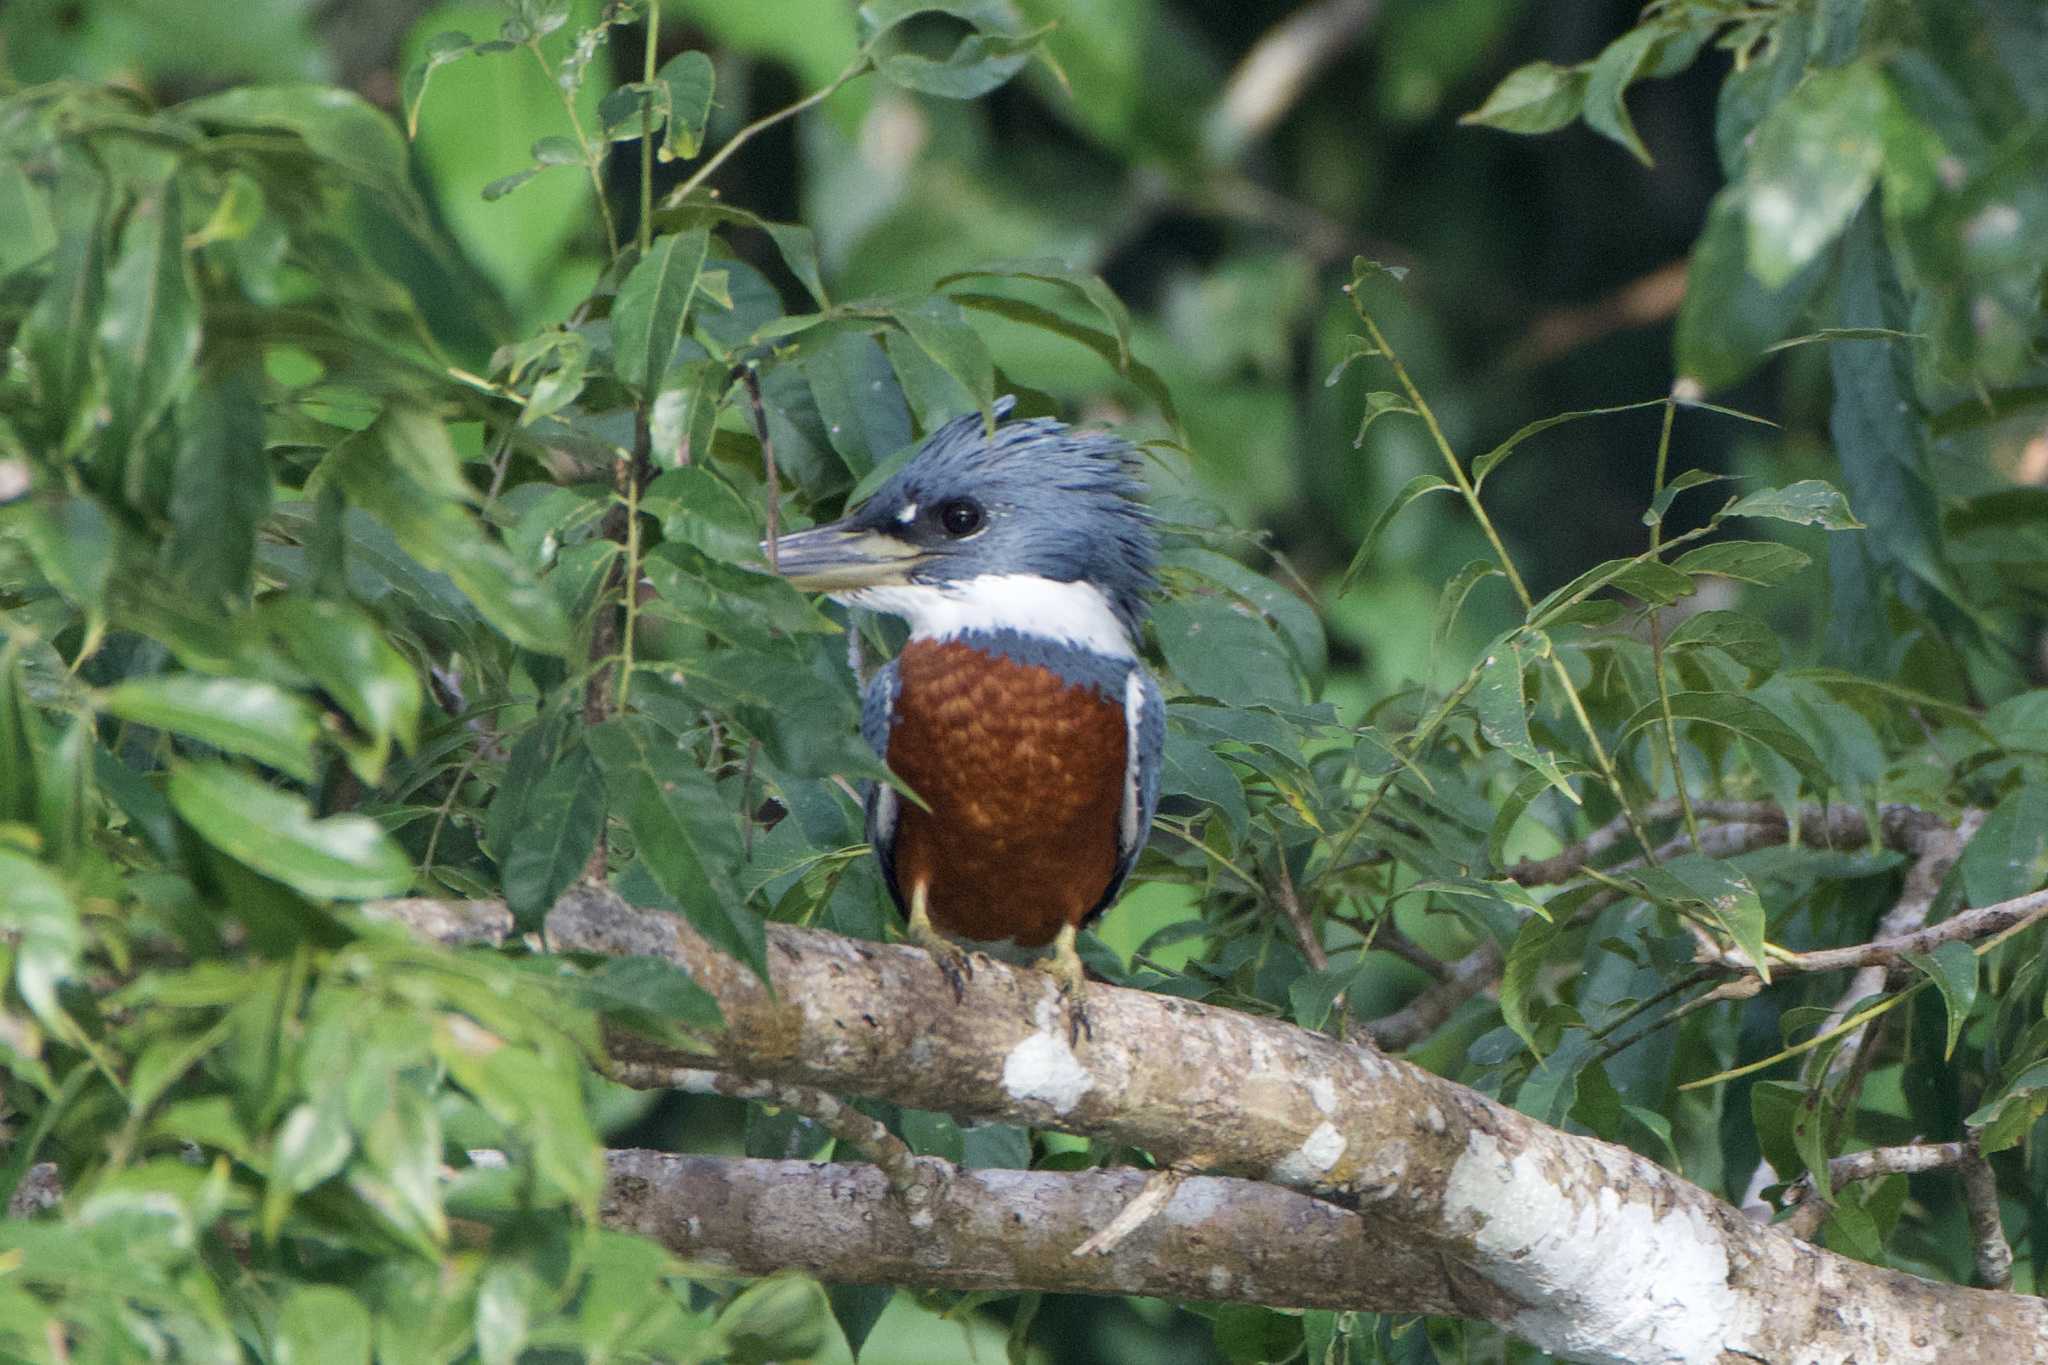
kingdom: Animalia
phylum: Chordata
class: Aves
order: Coraciiformes
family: Alcedinidae
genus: Megaceryle
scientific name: Megaceryle torquata
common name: Ringed kingfisher
